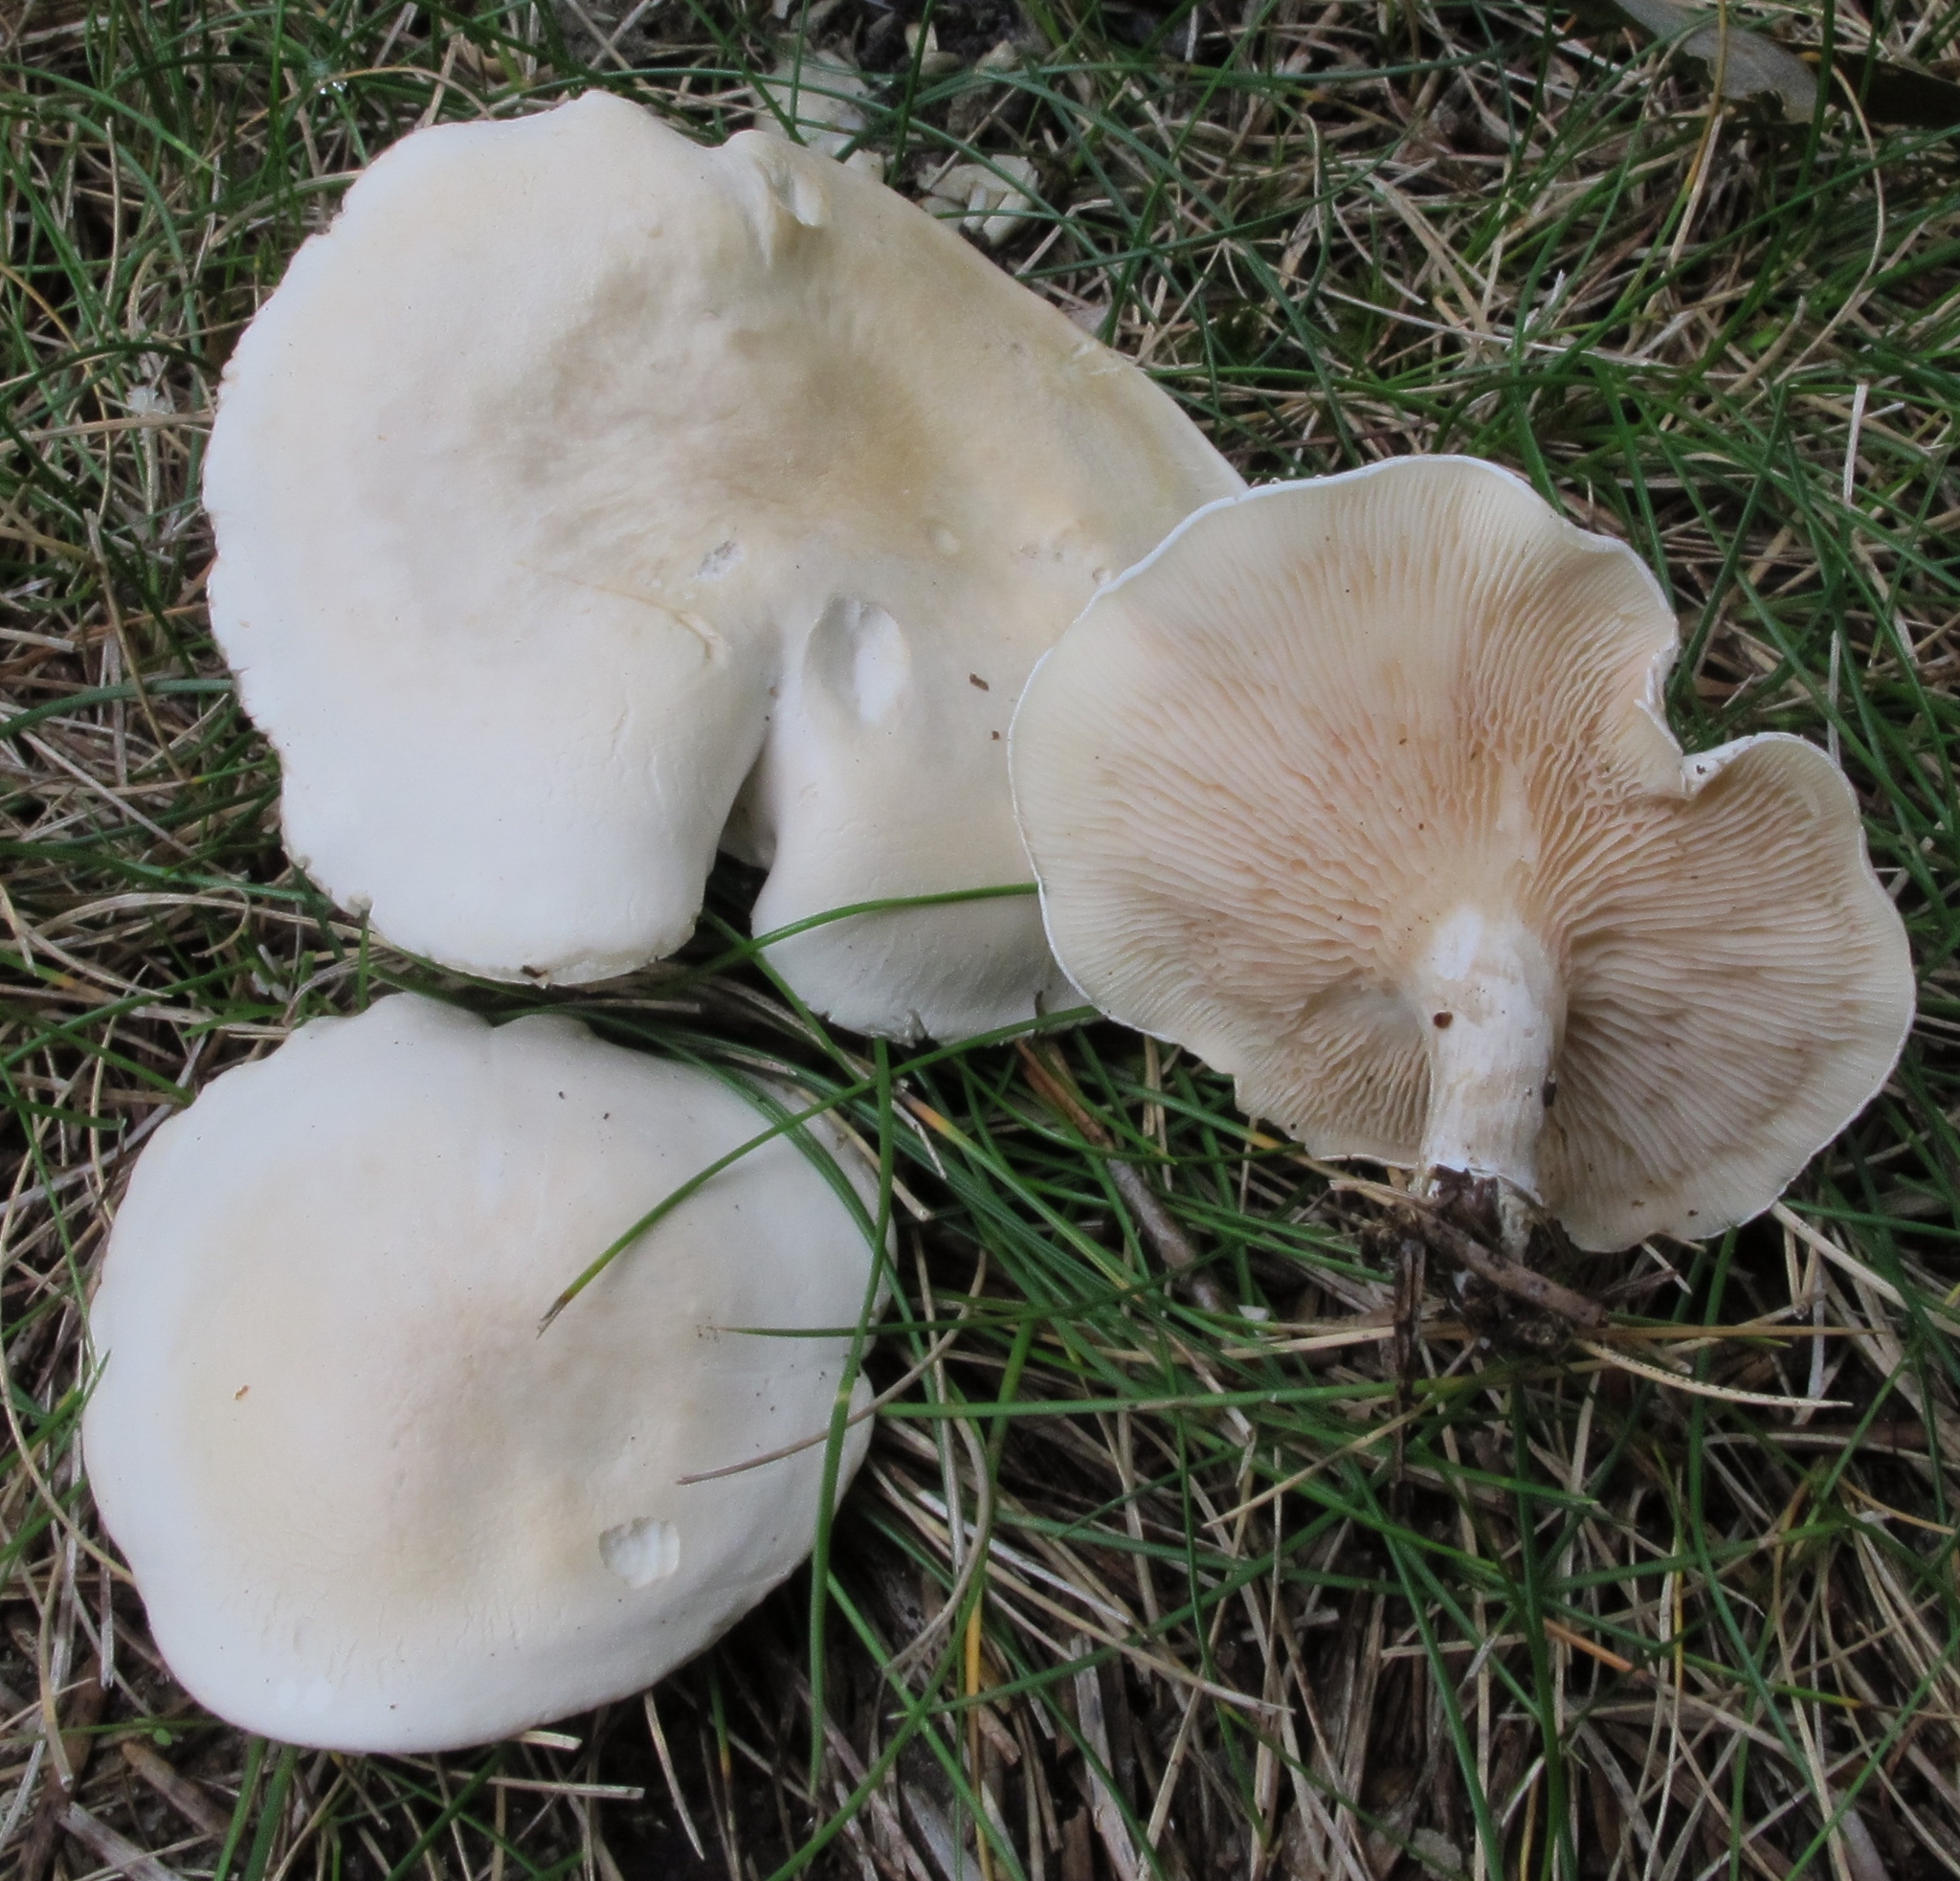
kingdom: Fungi
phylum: Basidiomycota
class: Agaricomycetes
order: Agaricales
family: Entolomataceae
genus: Clitopilus
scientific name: Clitopilus prunulus
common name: The miller
